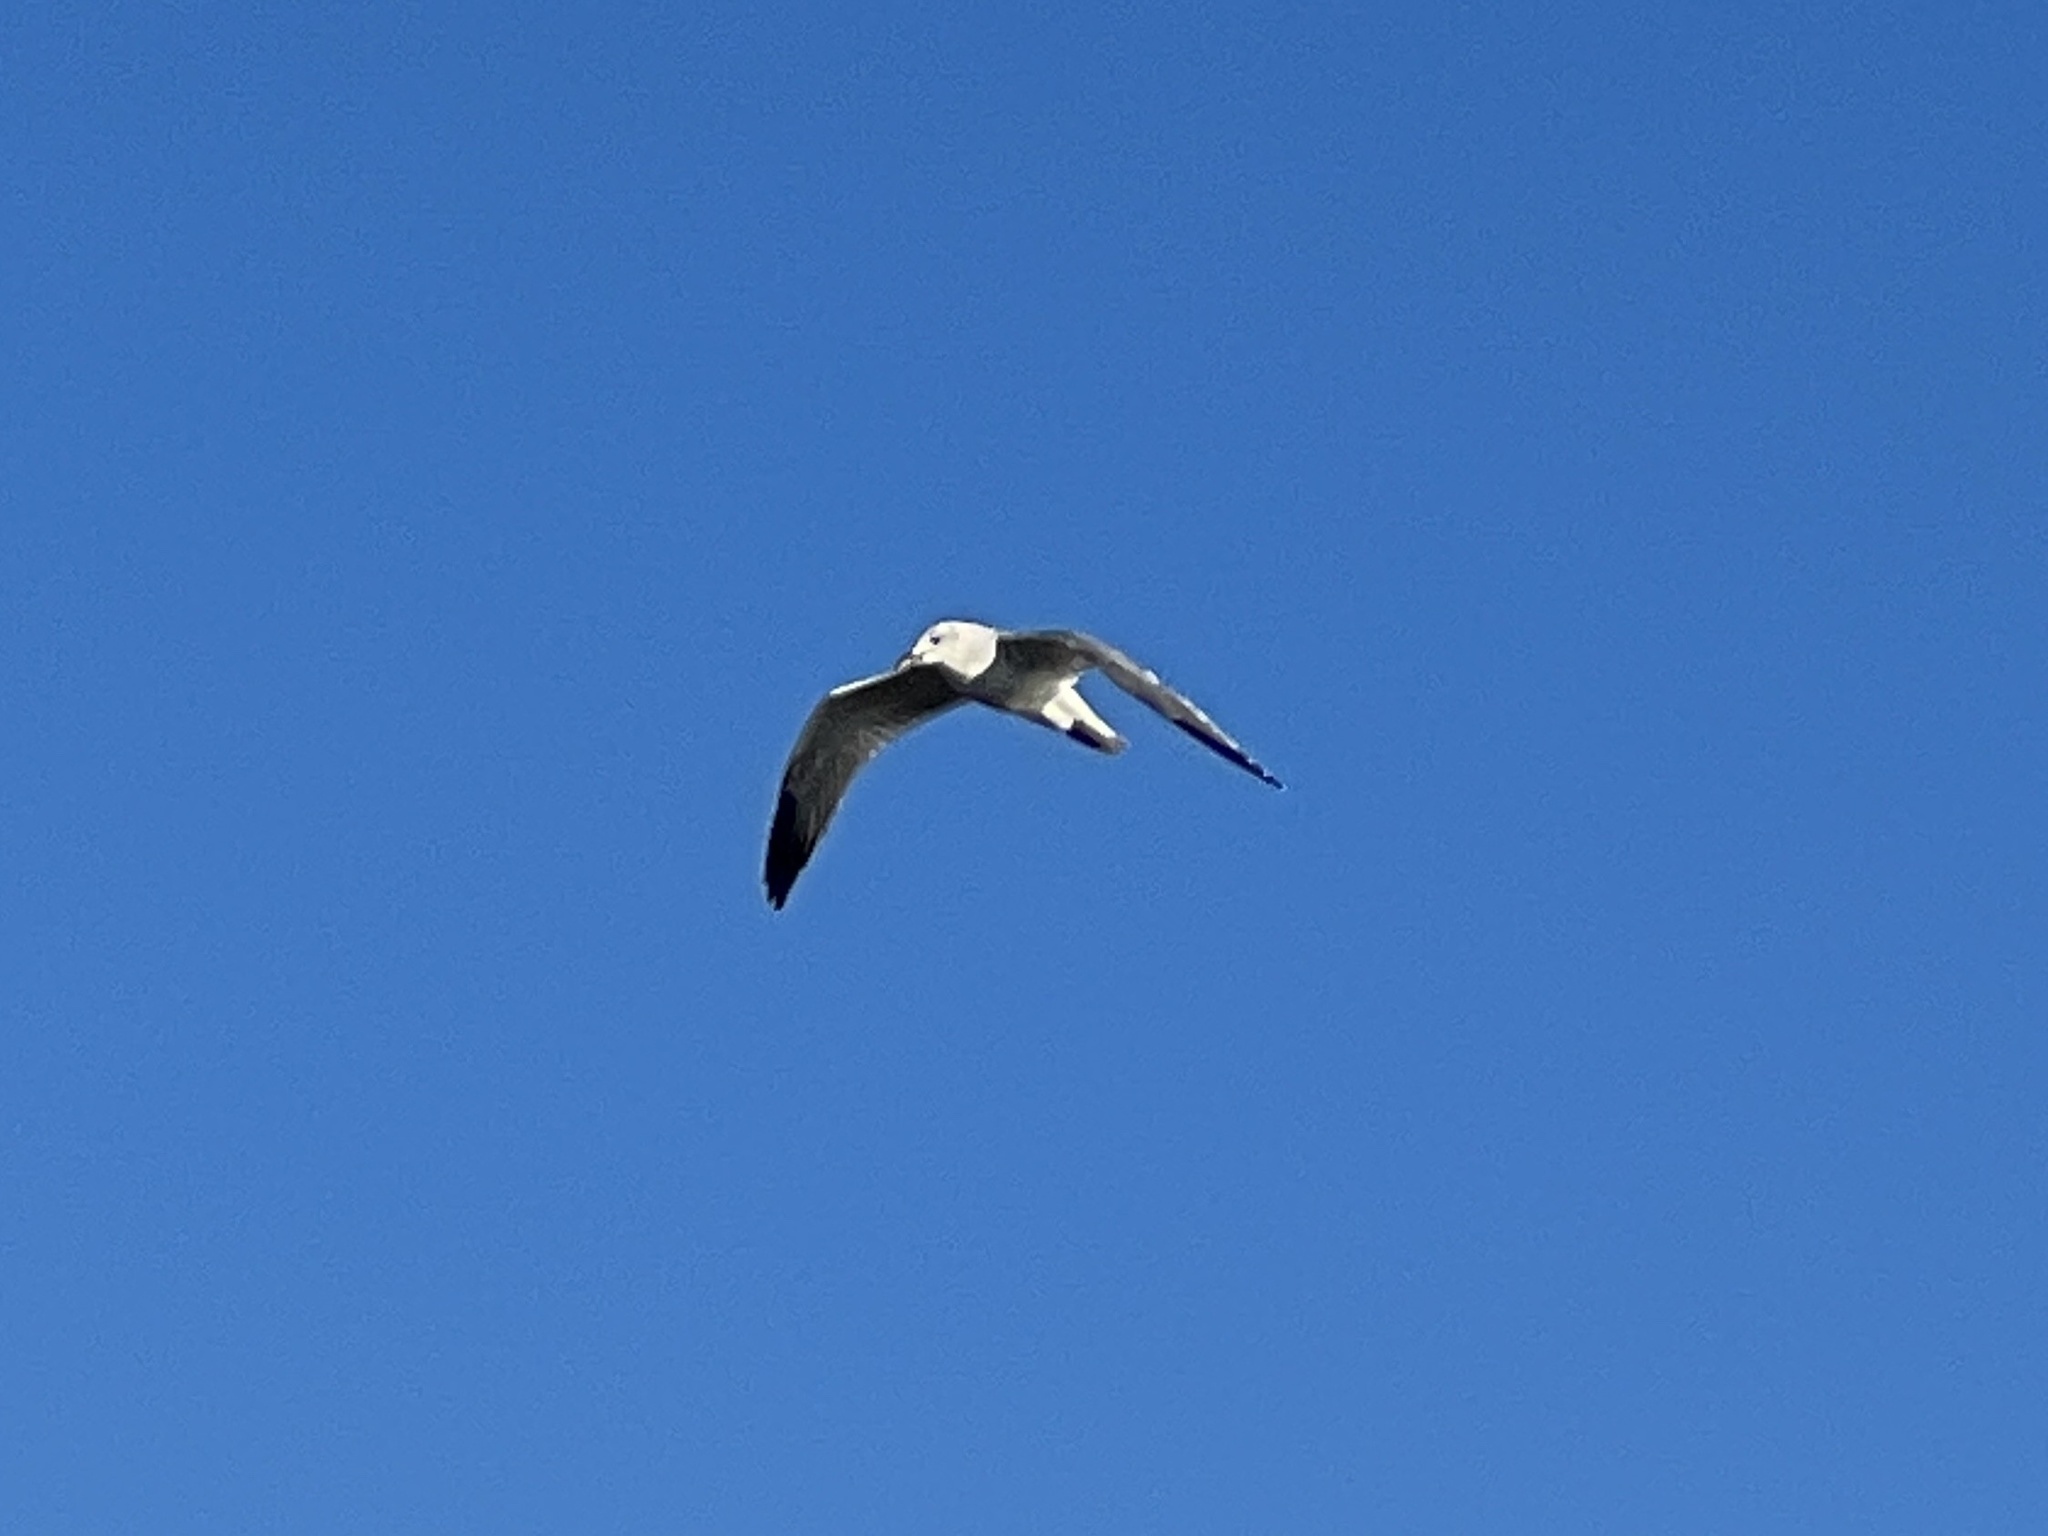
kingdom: Animalia
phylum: Chordata
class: Aves
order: Charadriiformes
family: Laridae
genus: Leucophaeus
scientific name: Leucophaeus atricilla
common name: Laughing gull
